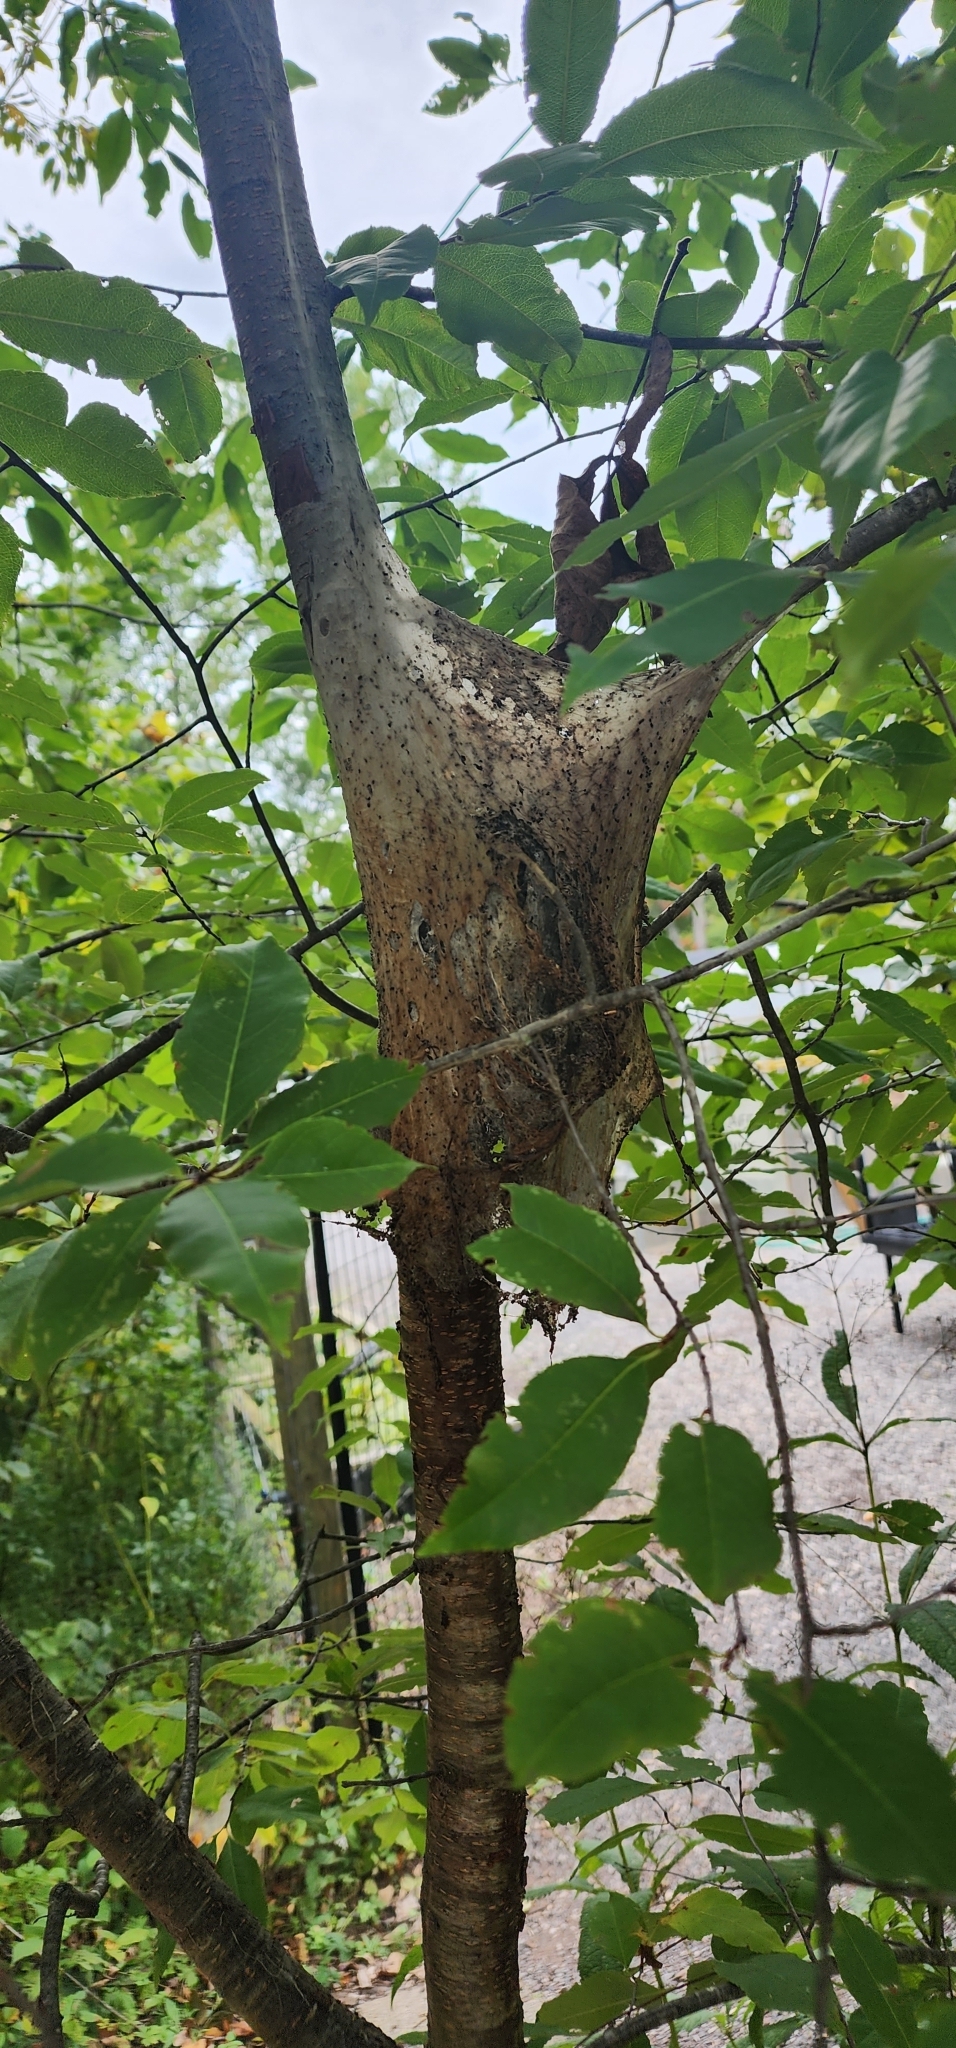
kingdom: Animalia
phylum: Arthropoda
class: Insecta
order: Lepidoptera
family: Erebidae
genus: Hyphantria
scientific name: Hyphantria cunea
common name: American white moth
